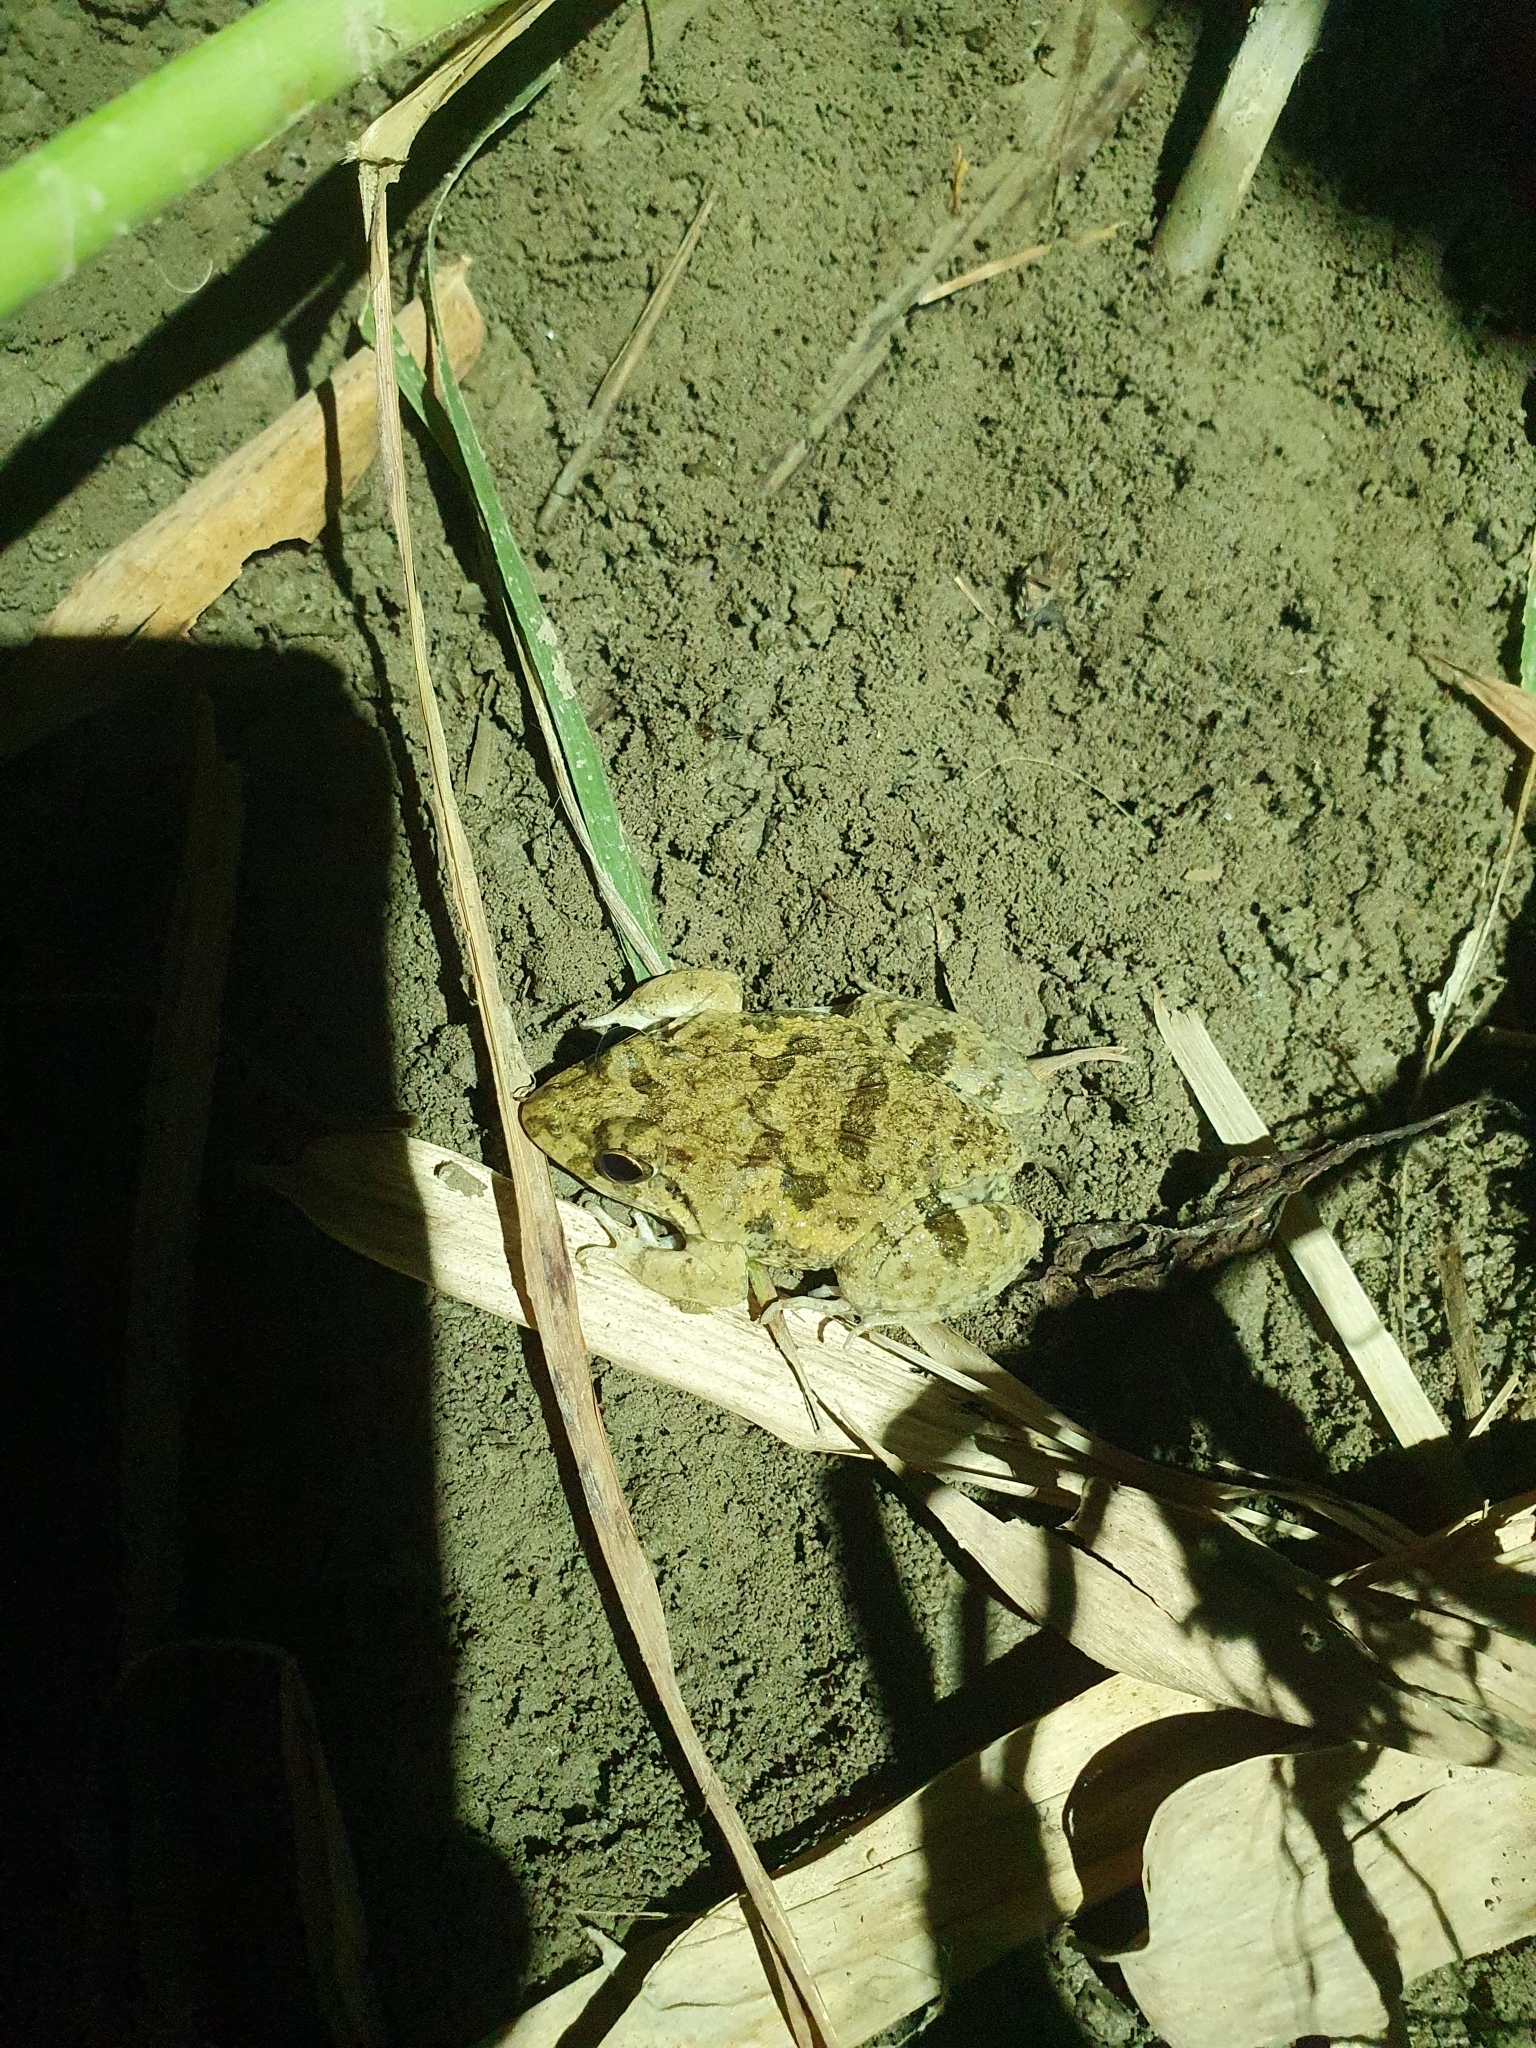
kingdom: Animalia
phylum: Chordata
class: Amphibia
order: Anura
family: Dicroglossidae
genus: Fejervarya
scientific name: Fejervarya limnocharis
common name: Asian grass frog/common pond frog/field frog/grass frog/indian rice frog
